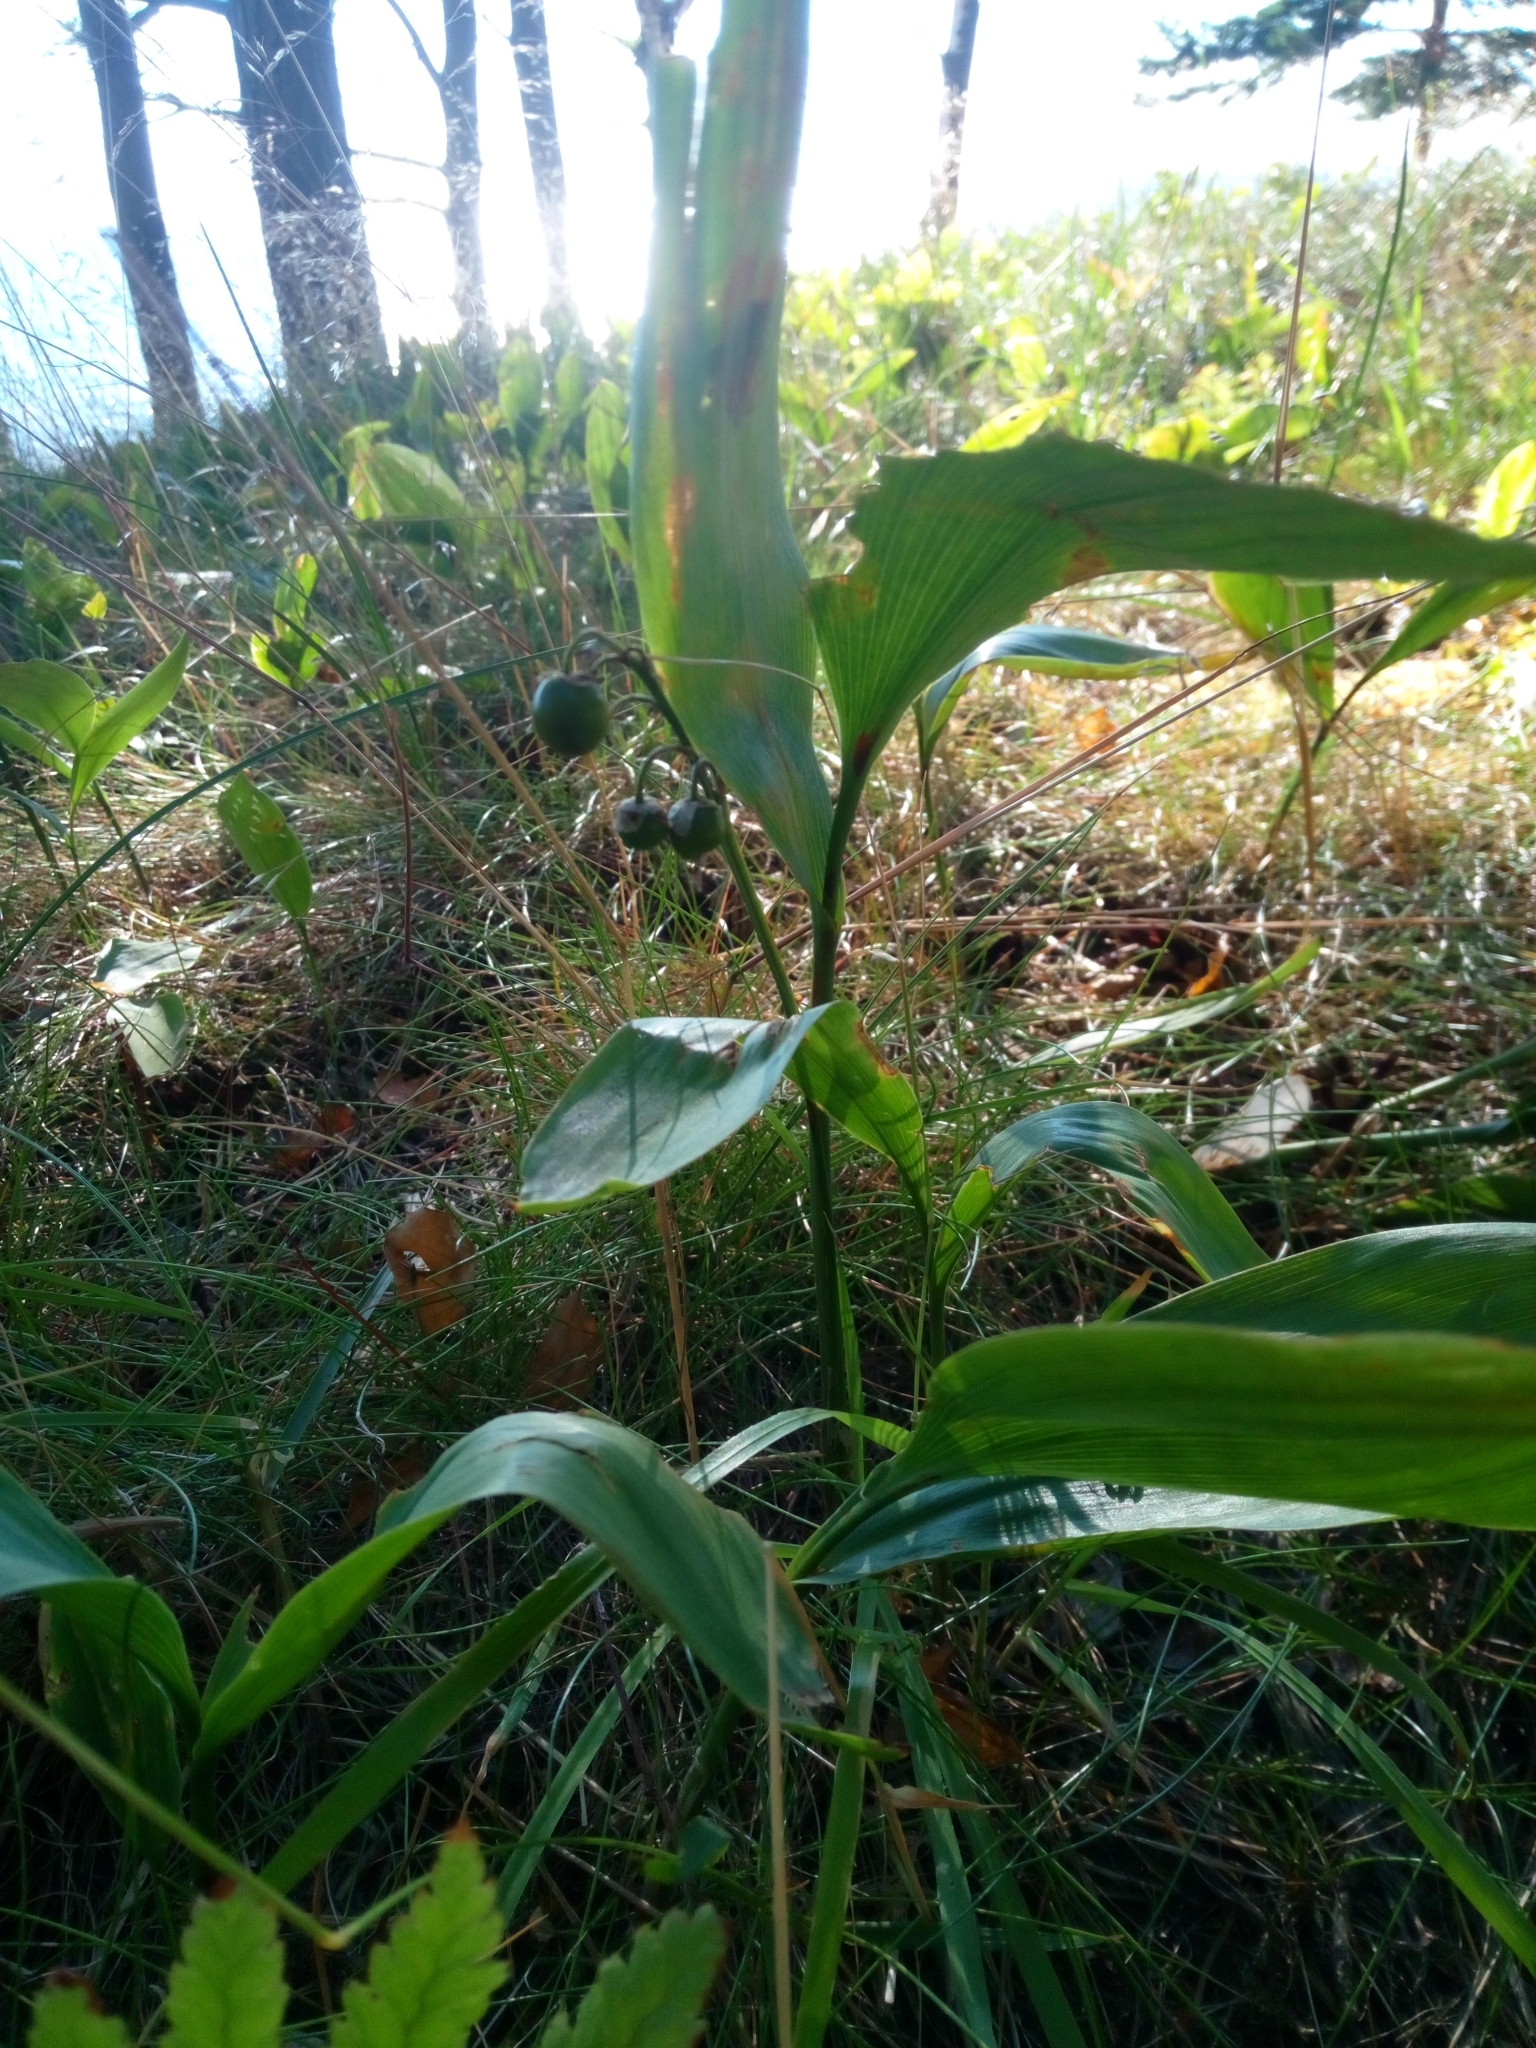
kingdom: Plantae
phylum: Tracheophyta
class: Liliopsida
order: Asparagales
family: Asparagaceae
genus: Convallaria
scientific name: Convallaria majalis
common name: Lily-of-the-valley
